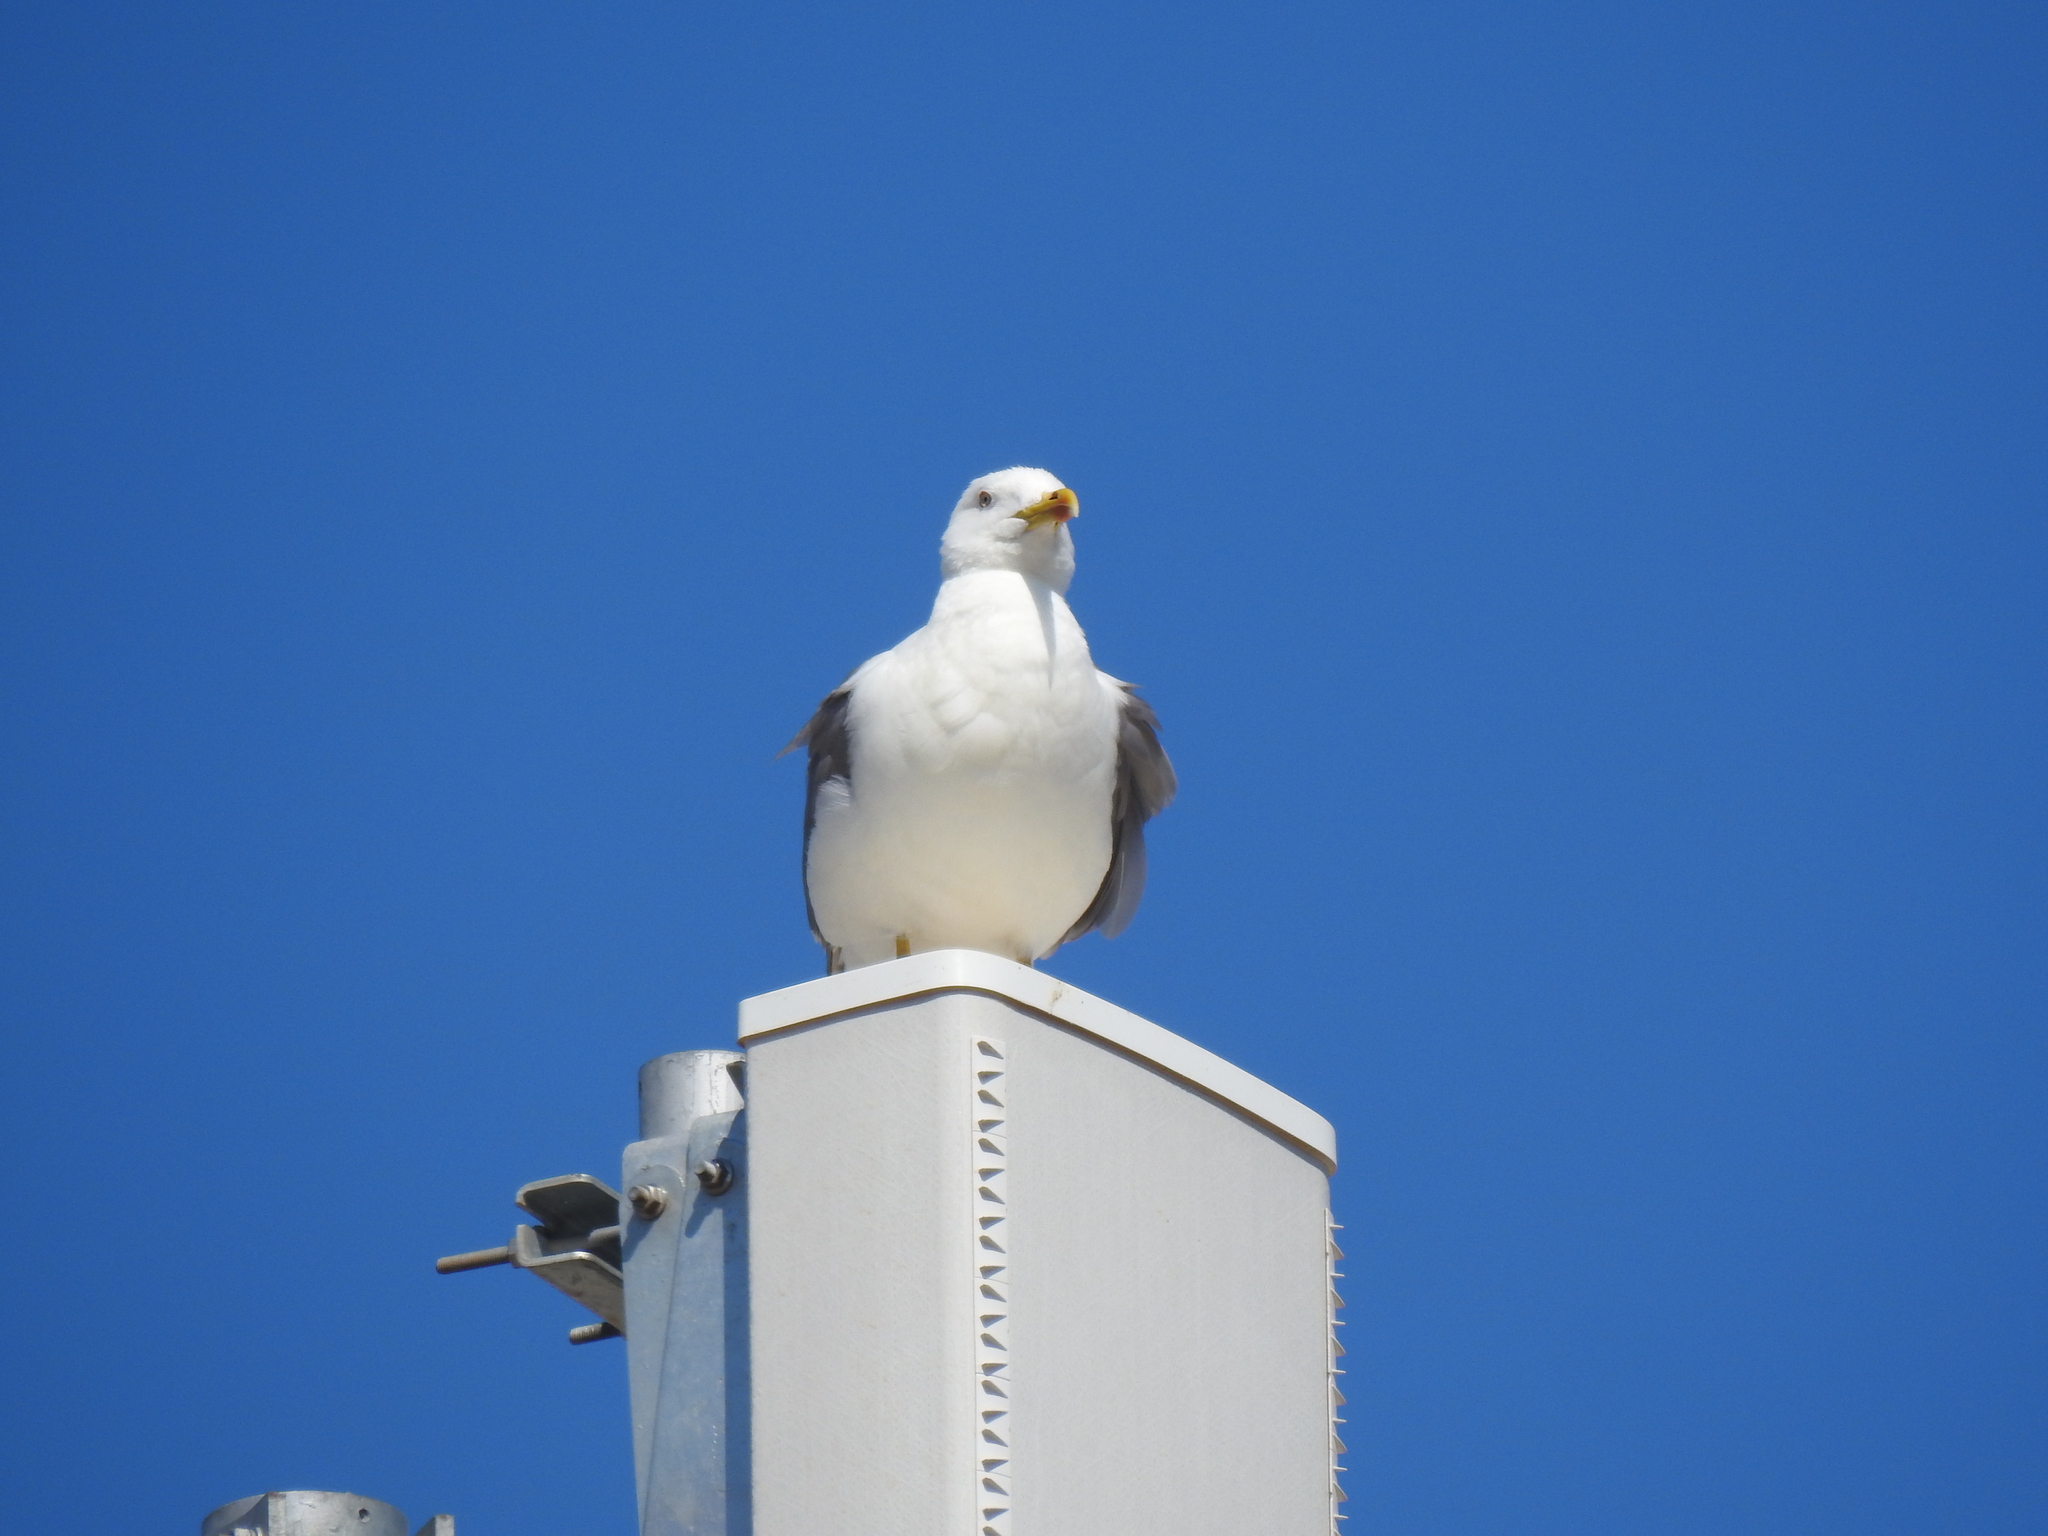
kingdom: Animalia
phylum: Chordata
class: Aves
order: Charadriiformes
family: Laridae
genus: Larus
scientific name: Larus michahellis
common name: Yellow-legged gull
